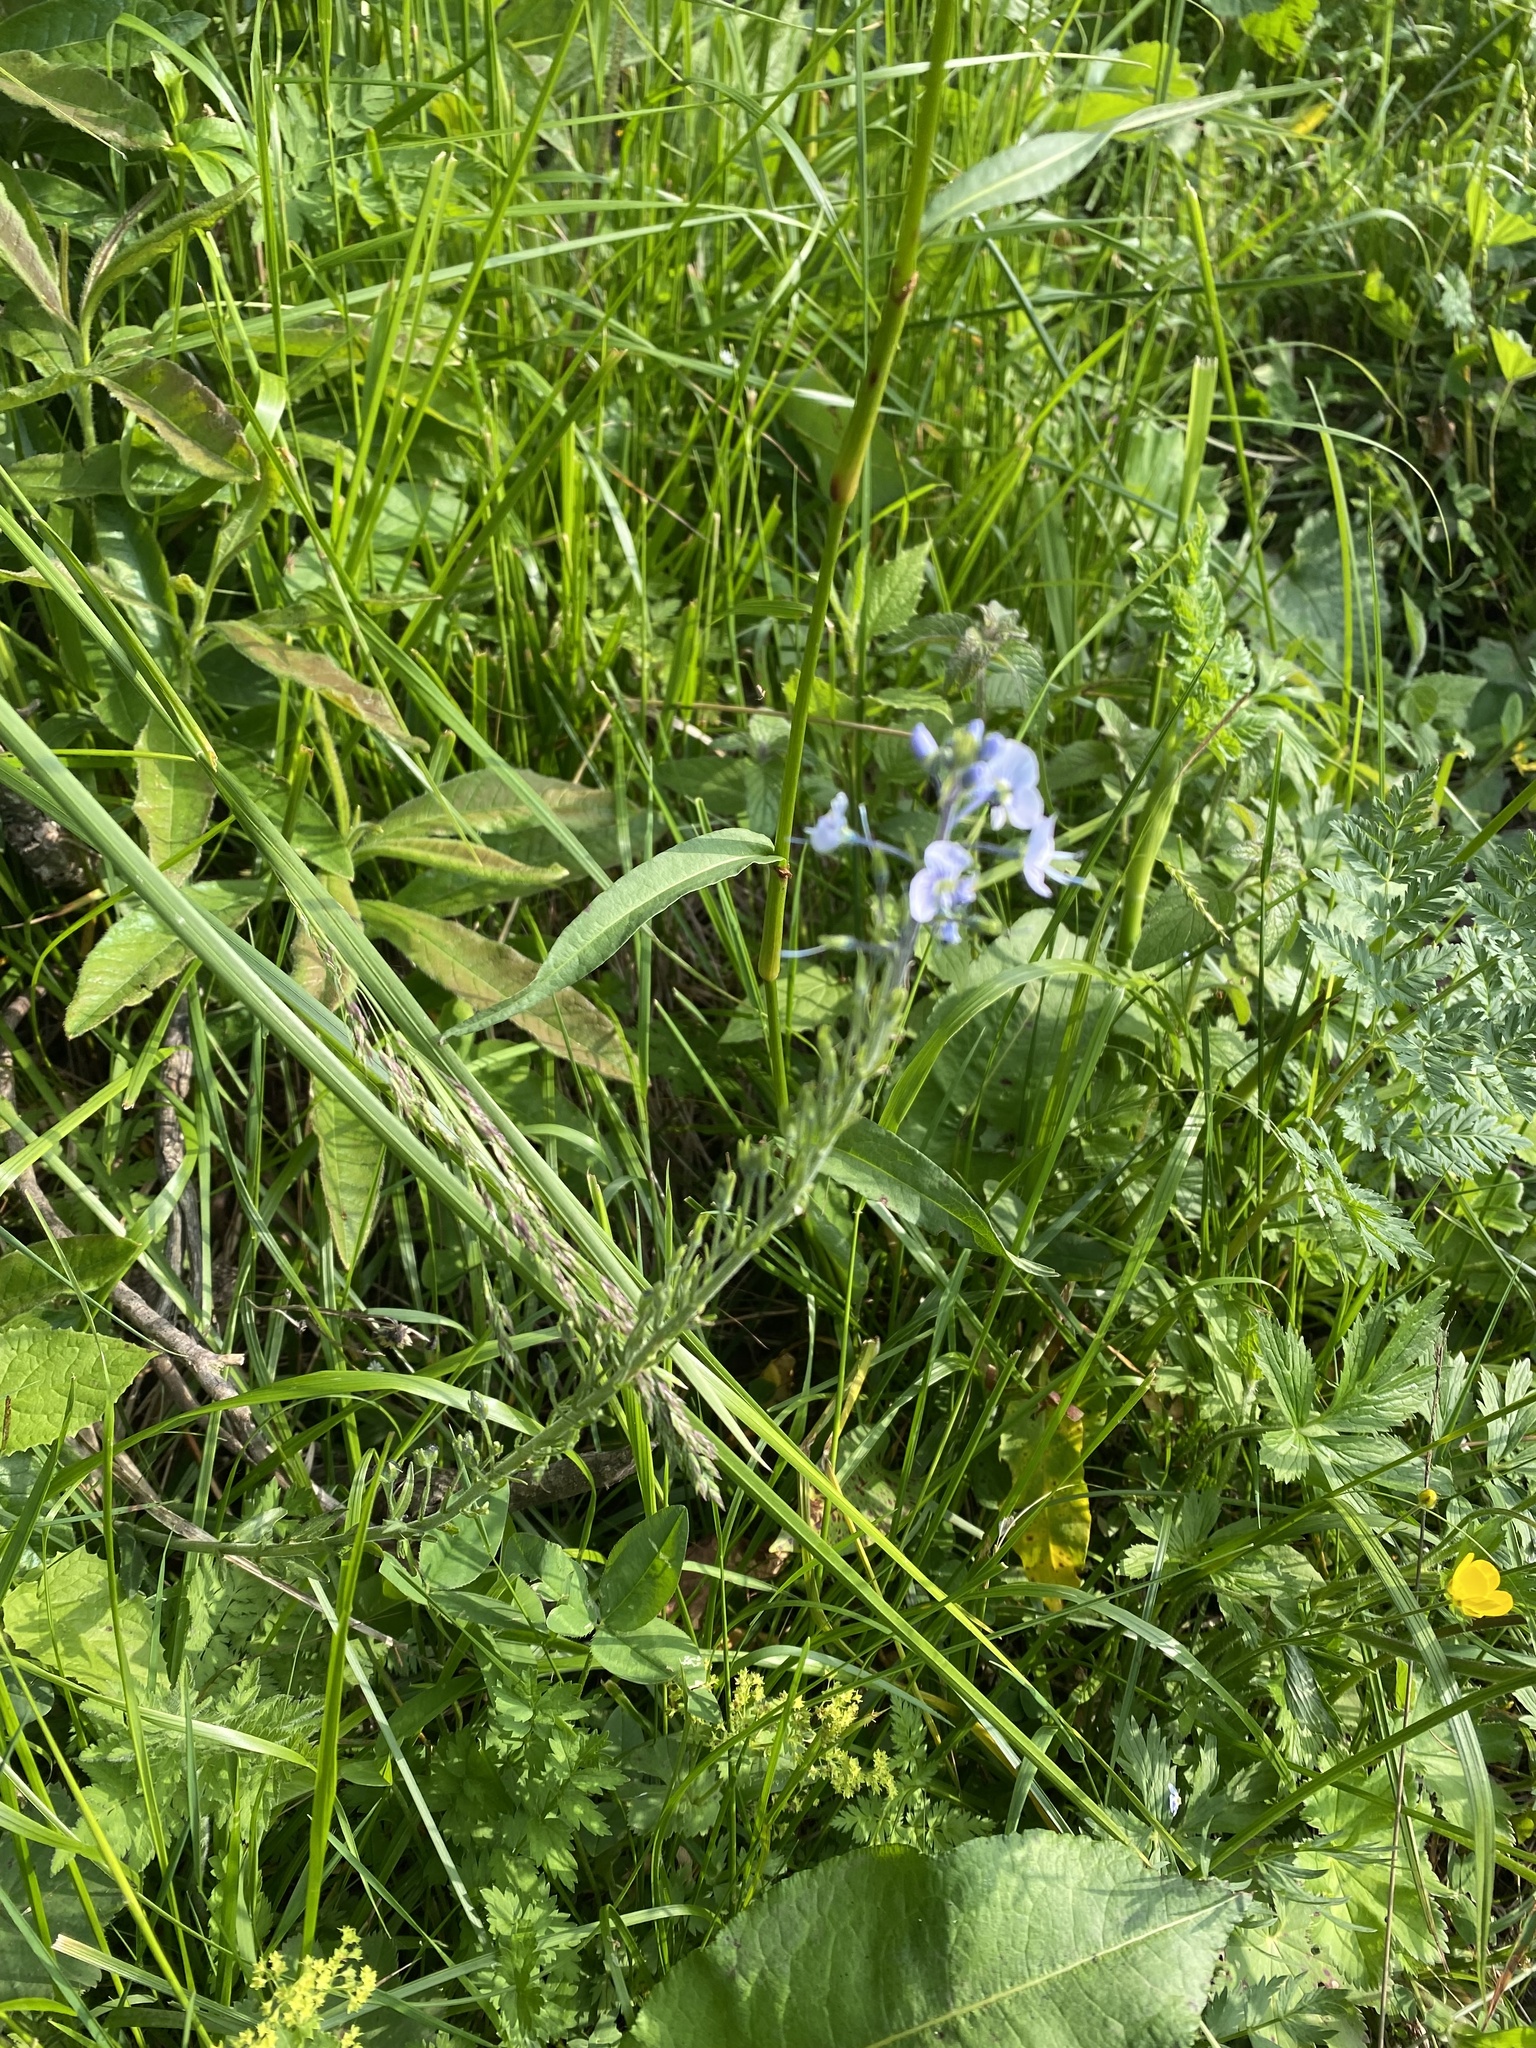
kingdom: Plantae
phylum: Tracheophyta
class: Magnoliopsida
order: Lamiales
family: Plantaginaceae
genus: Veronica
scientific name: Veronica gentianoides
